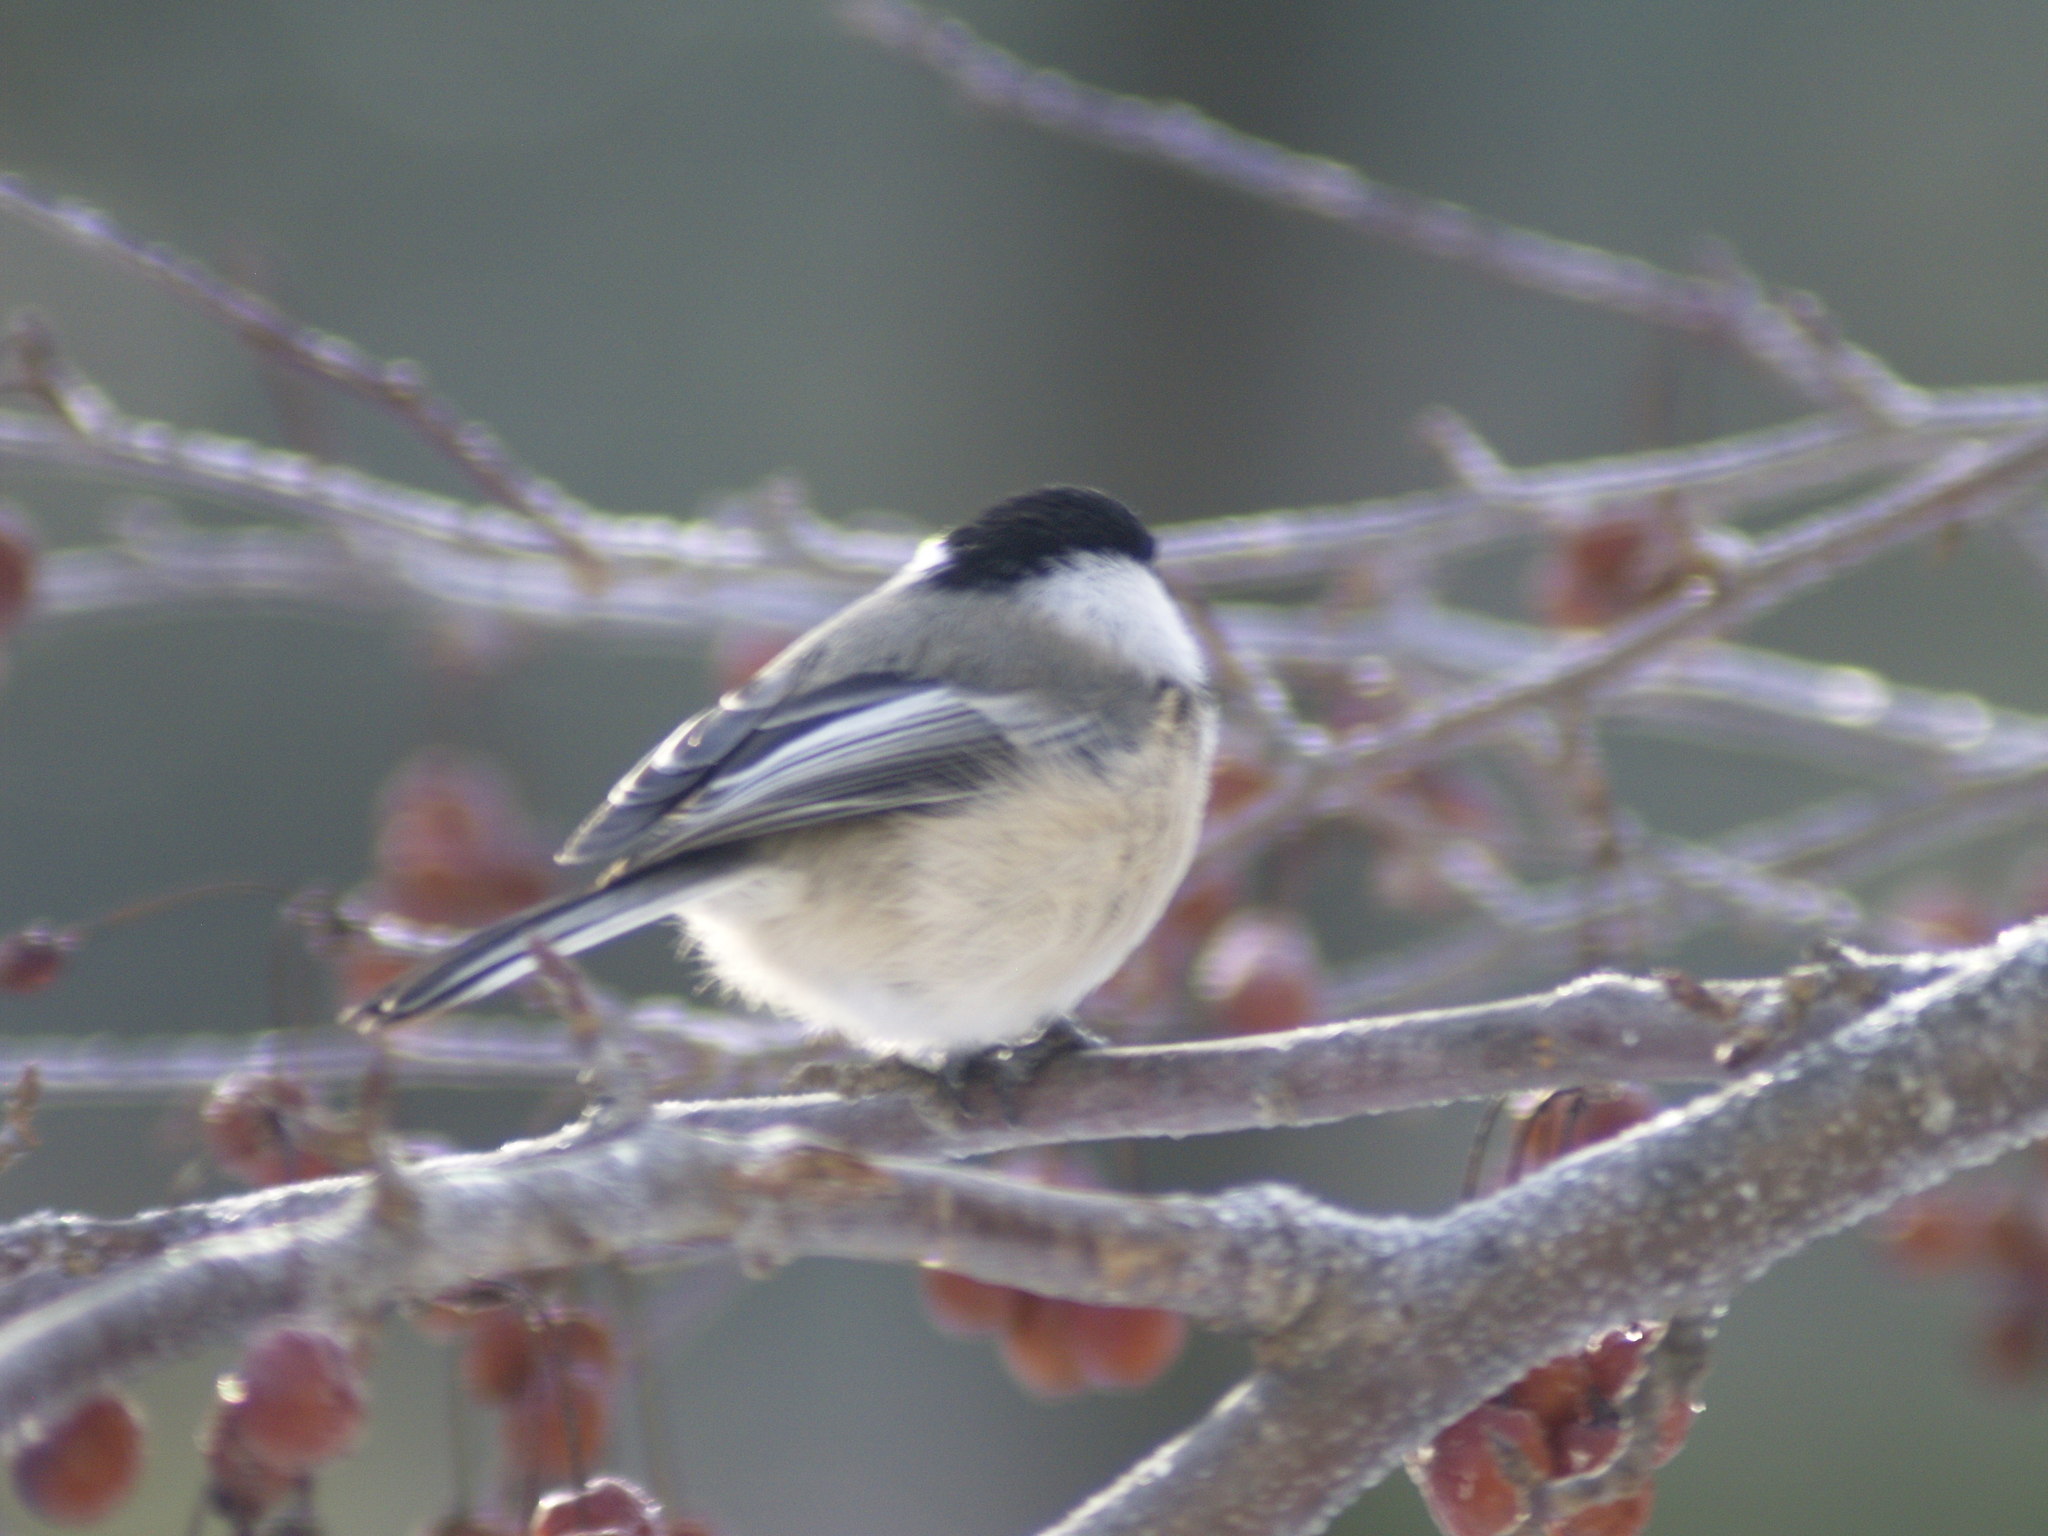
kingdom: Animalia
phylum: Chordata
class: Aves
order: Passeriformes
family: Paridae
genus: Poecile
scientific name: Poecile atricapillus
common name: Black-capped chickadee
